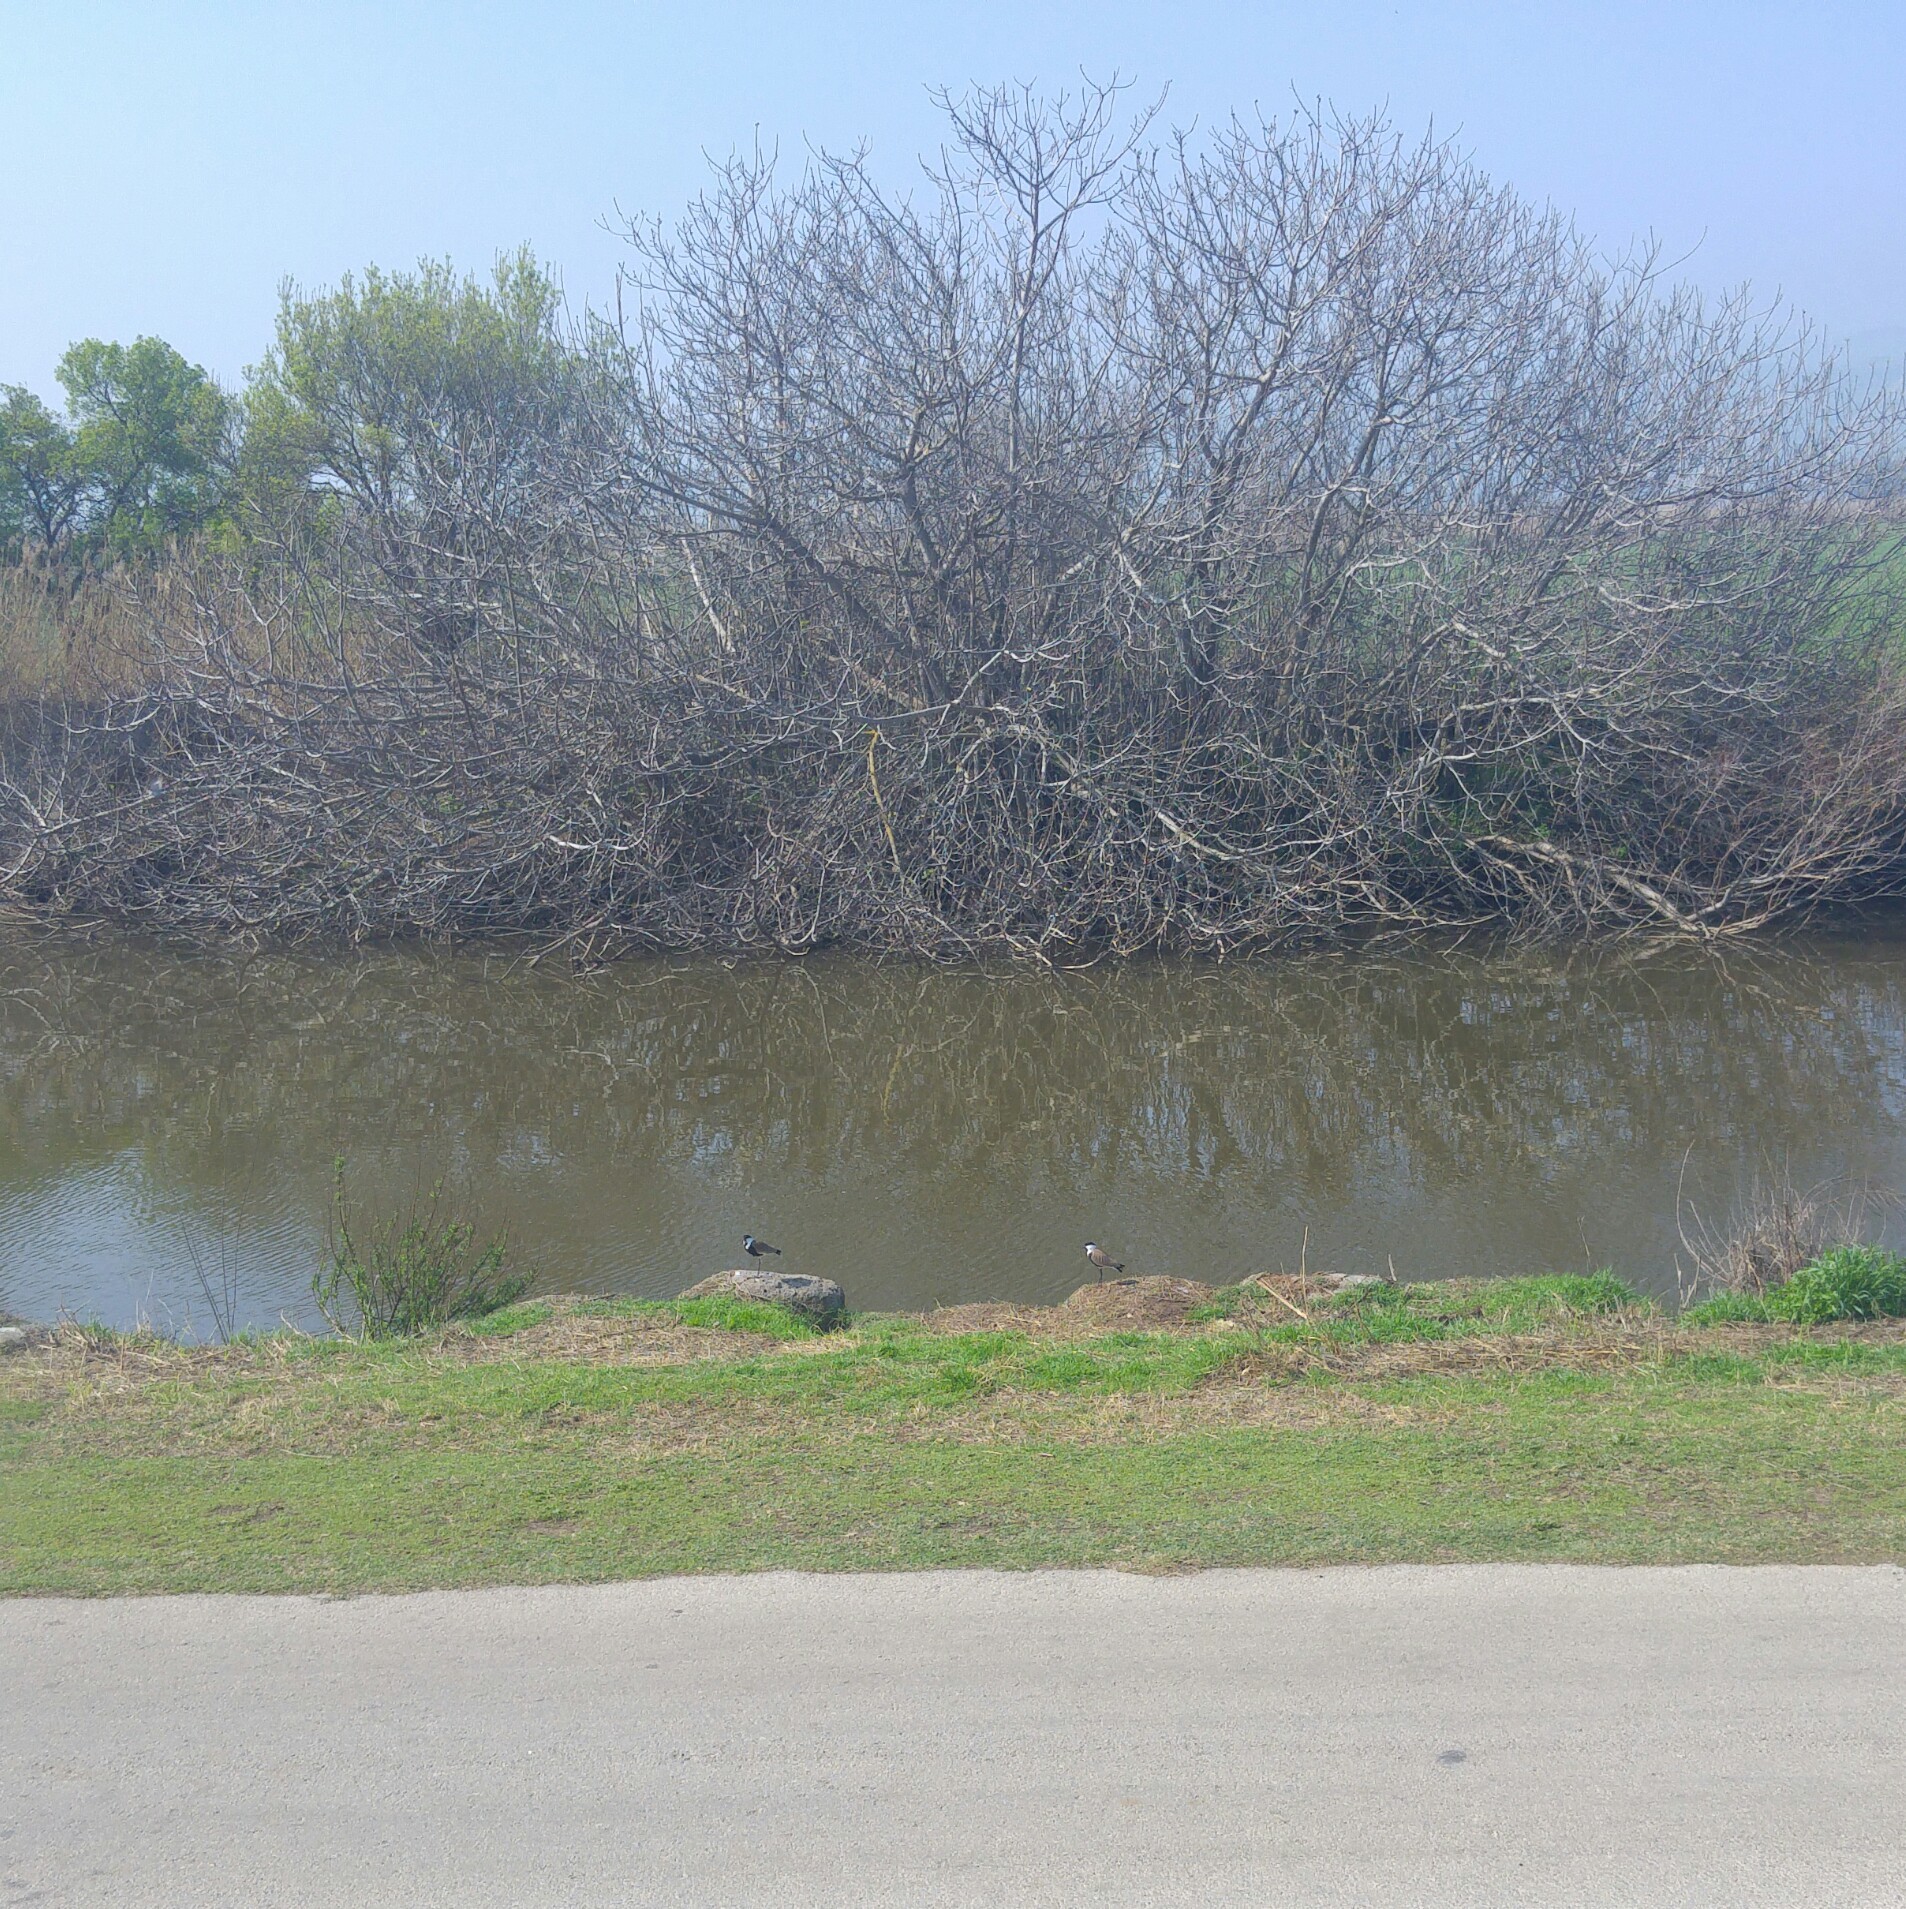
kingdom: Animalia
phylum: Chordata
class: Aves
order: Charadriiformes
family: Charadriidae
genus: Vanellus
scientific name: Vanellus spinosus
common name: Spur-winged lapwing
